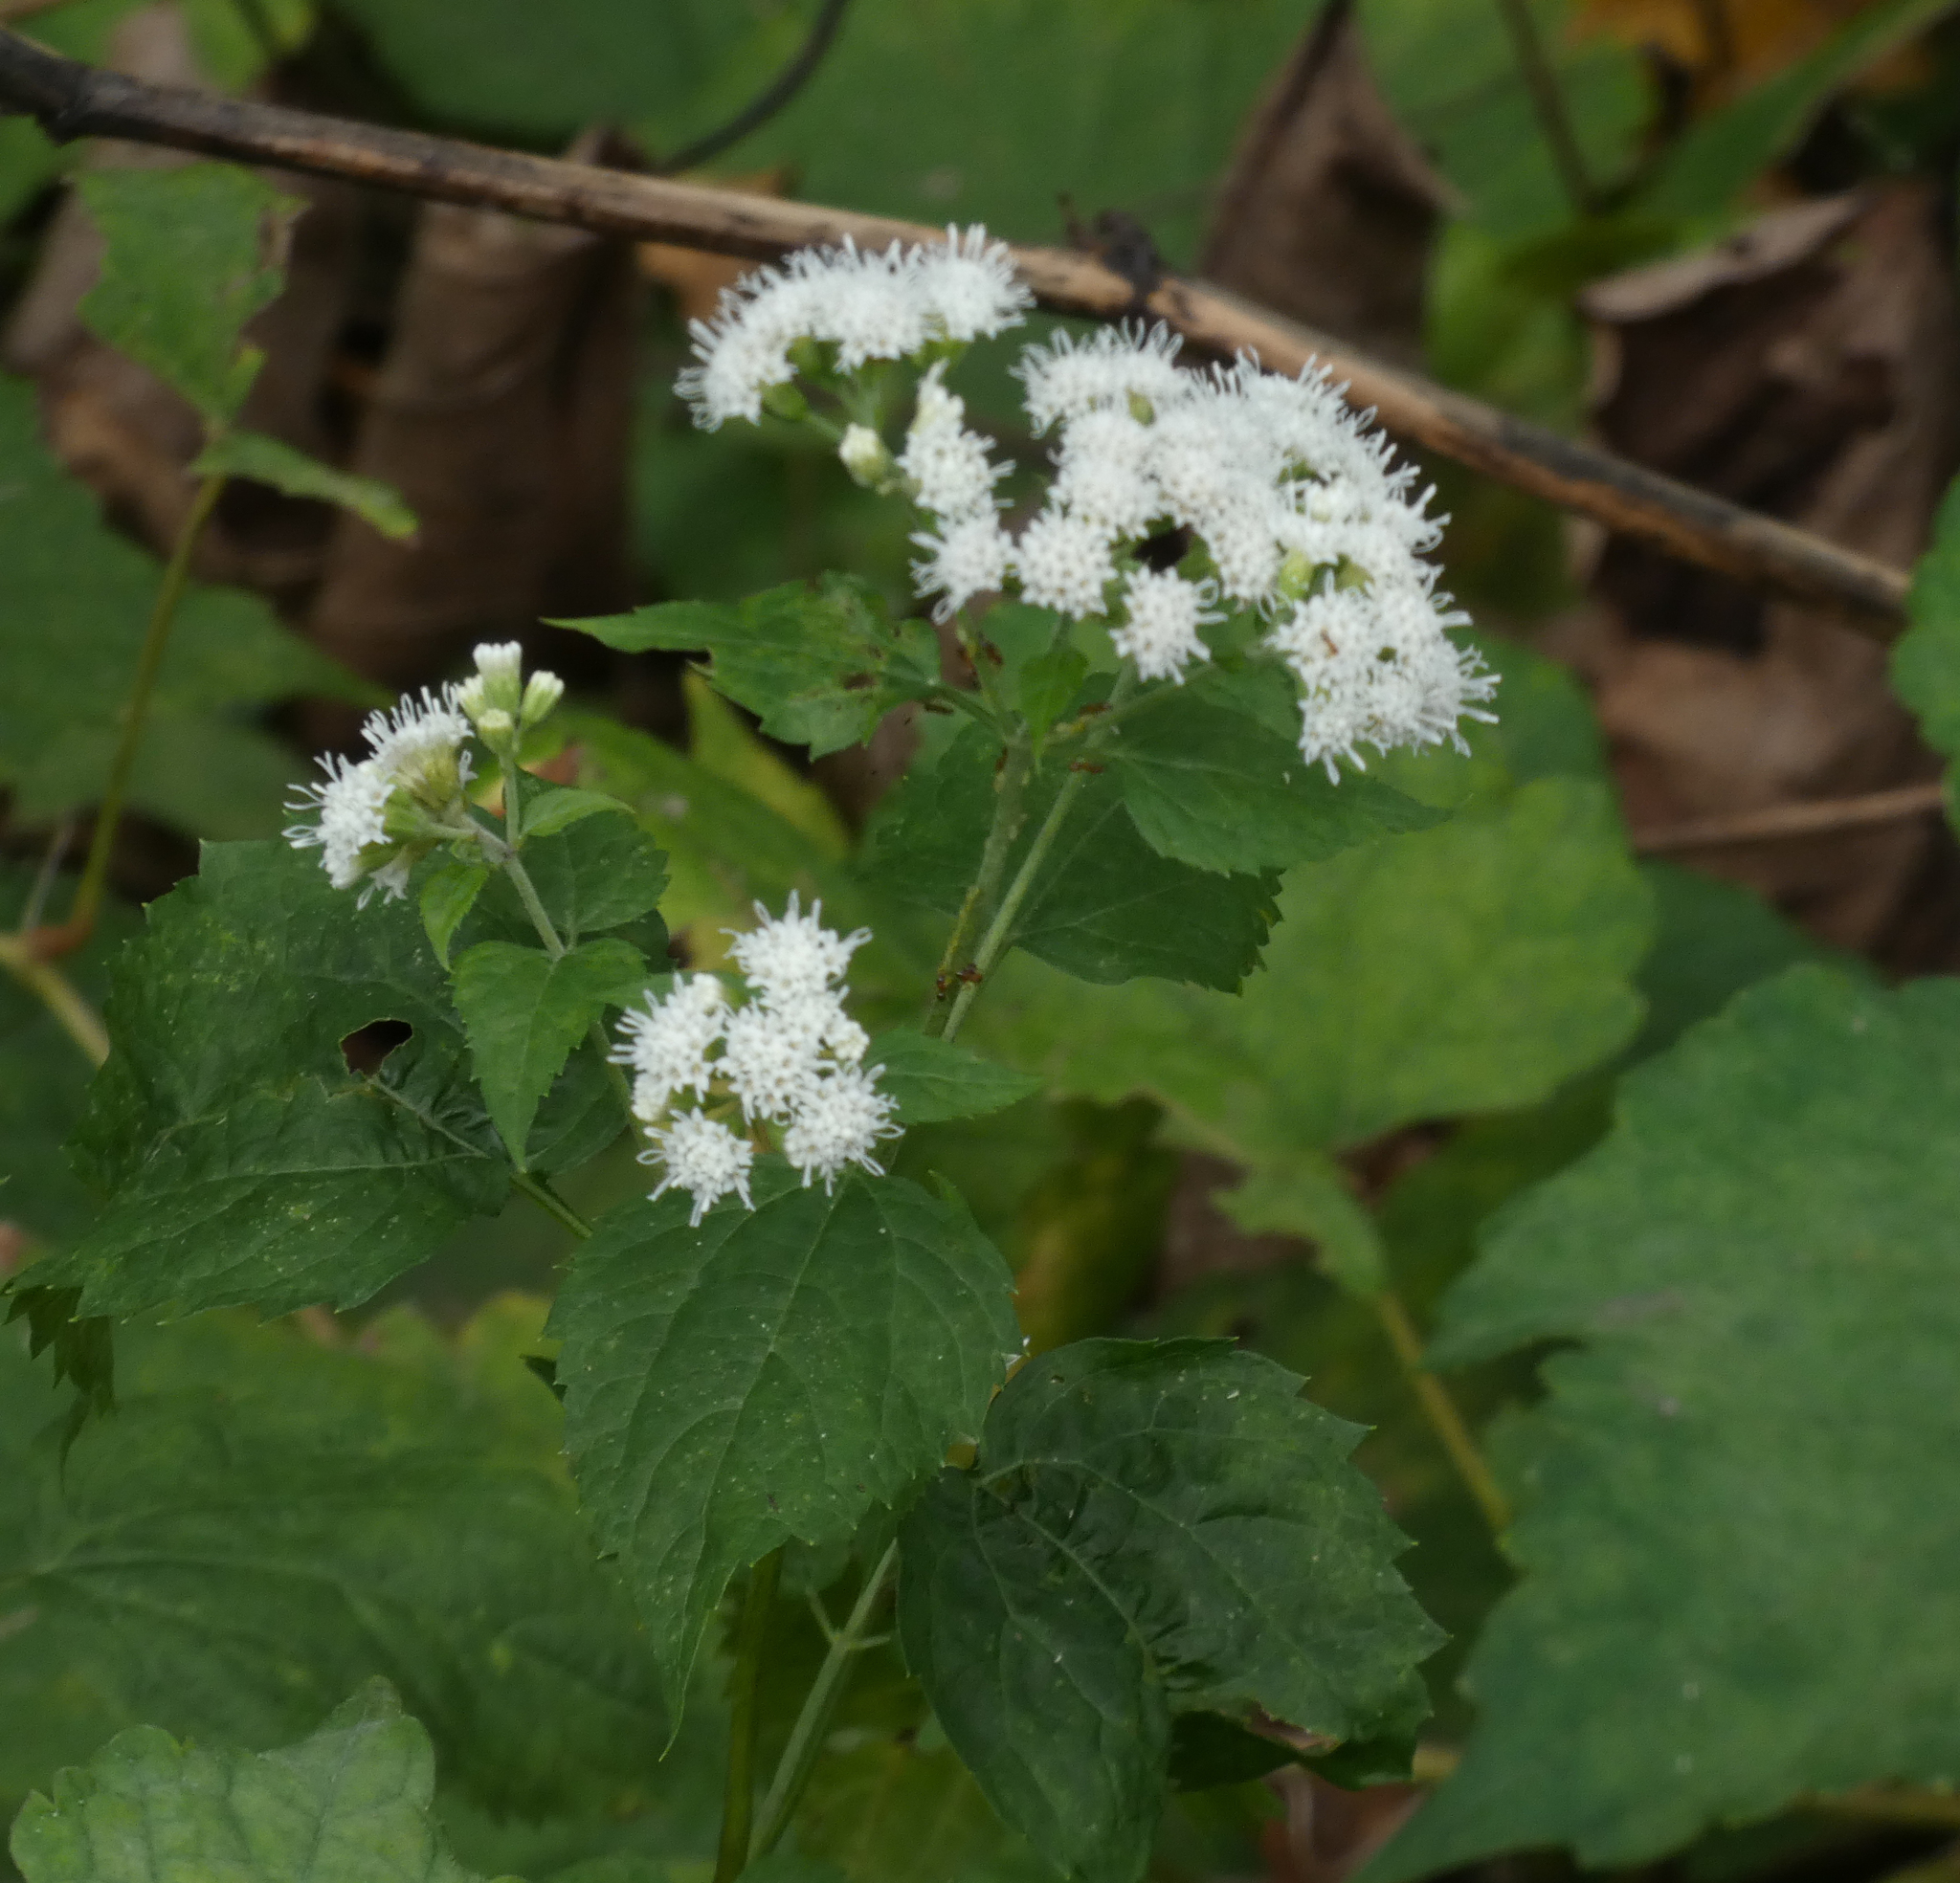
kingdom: Plantae
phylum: Tracheophyta
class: Magnoliopsida
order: Asterales
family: Asteraceae
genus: Ageratina
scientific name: Ageratina altissima
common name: White snakeroot
